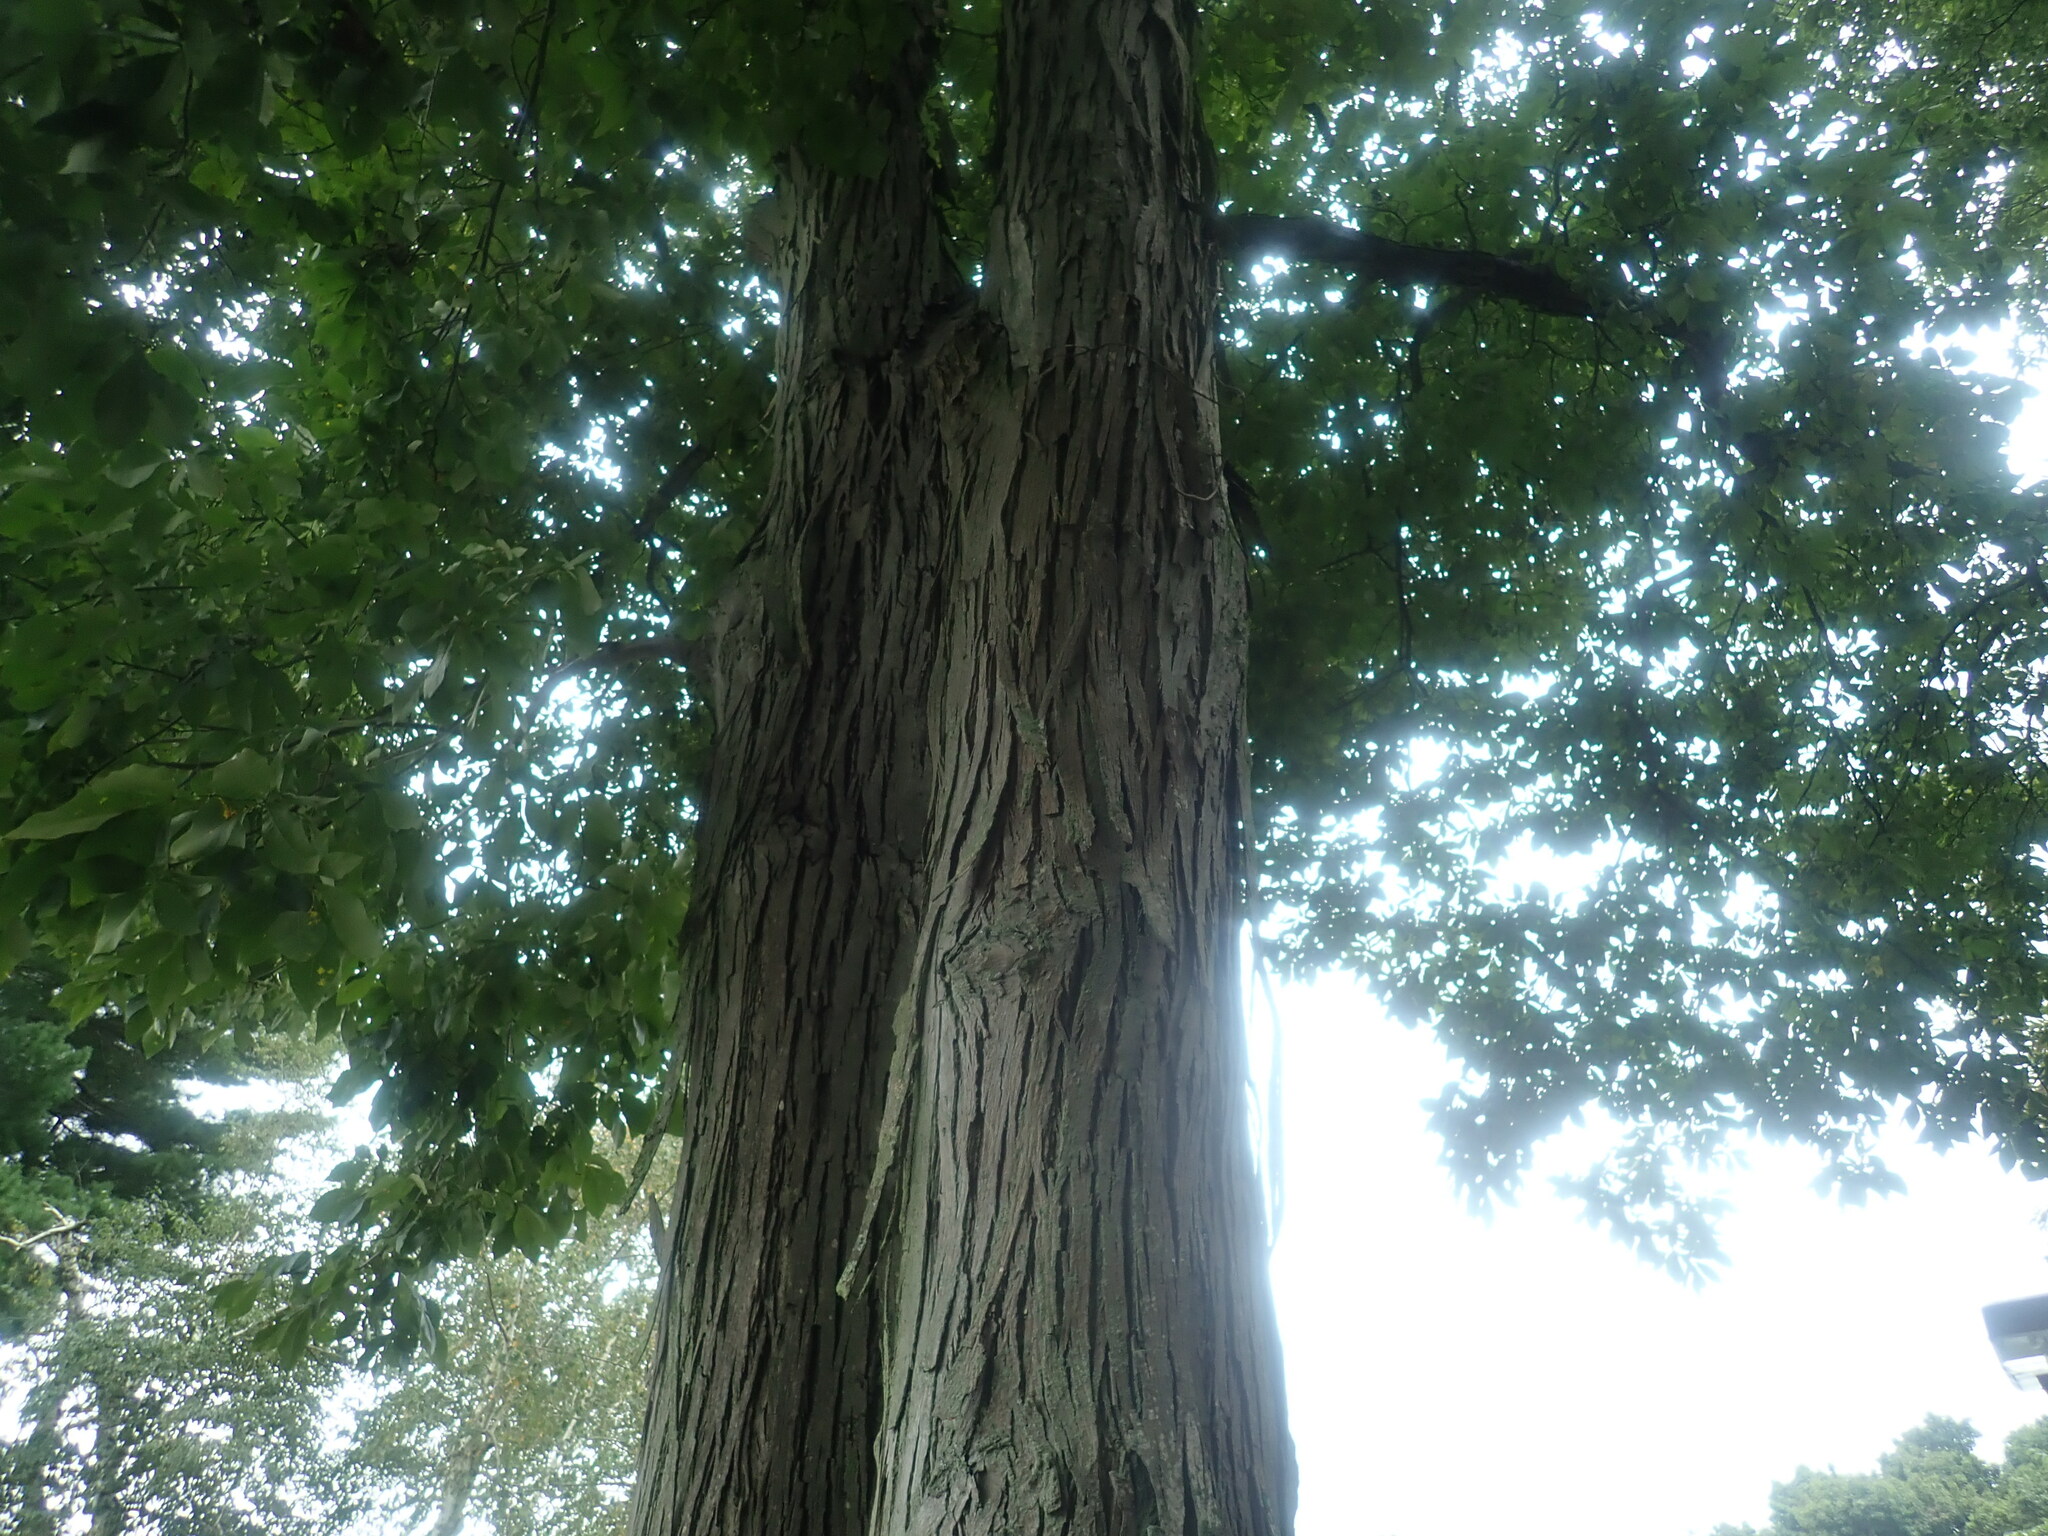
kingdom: Plantae
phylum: Tracheophyta
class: Magnoliopsida
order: Fagales
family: Juglandaceae
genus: Carya
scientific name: Carya ovata
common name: Shagbark hickory
